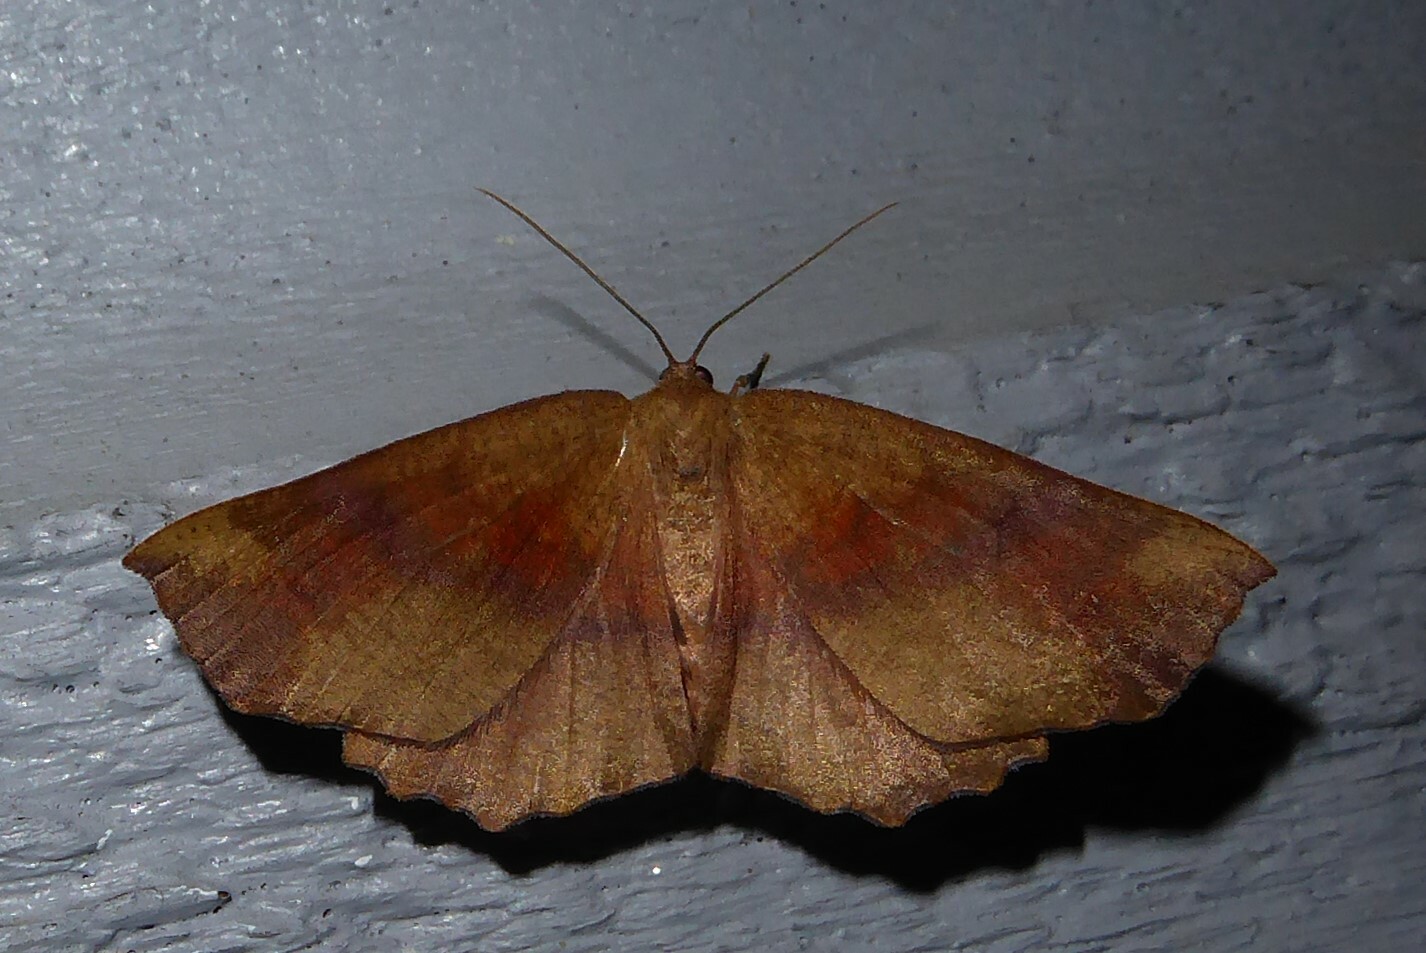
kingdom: Animalia
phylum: Arthropoda
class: Insecta
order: Lepidoptera
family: Geometridae
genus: Xyridacma
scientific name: Xyridacma ustaria
